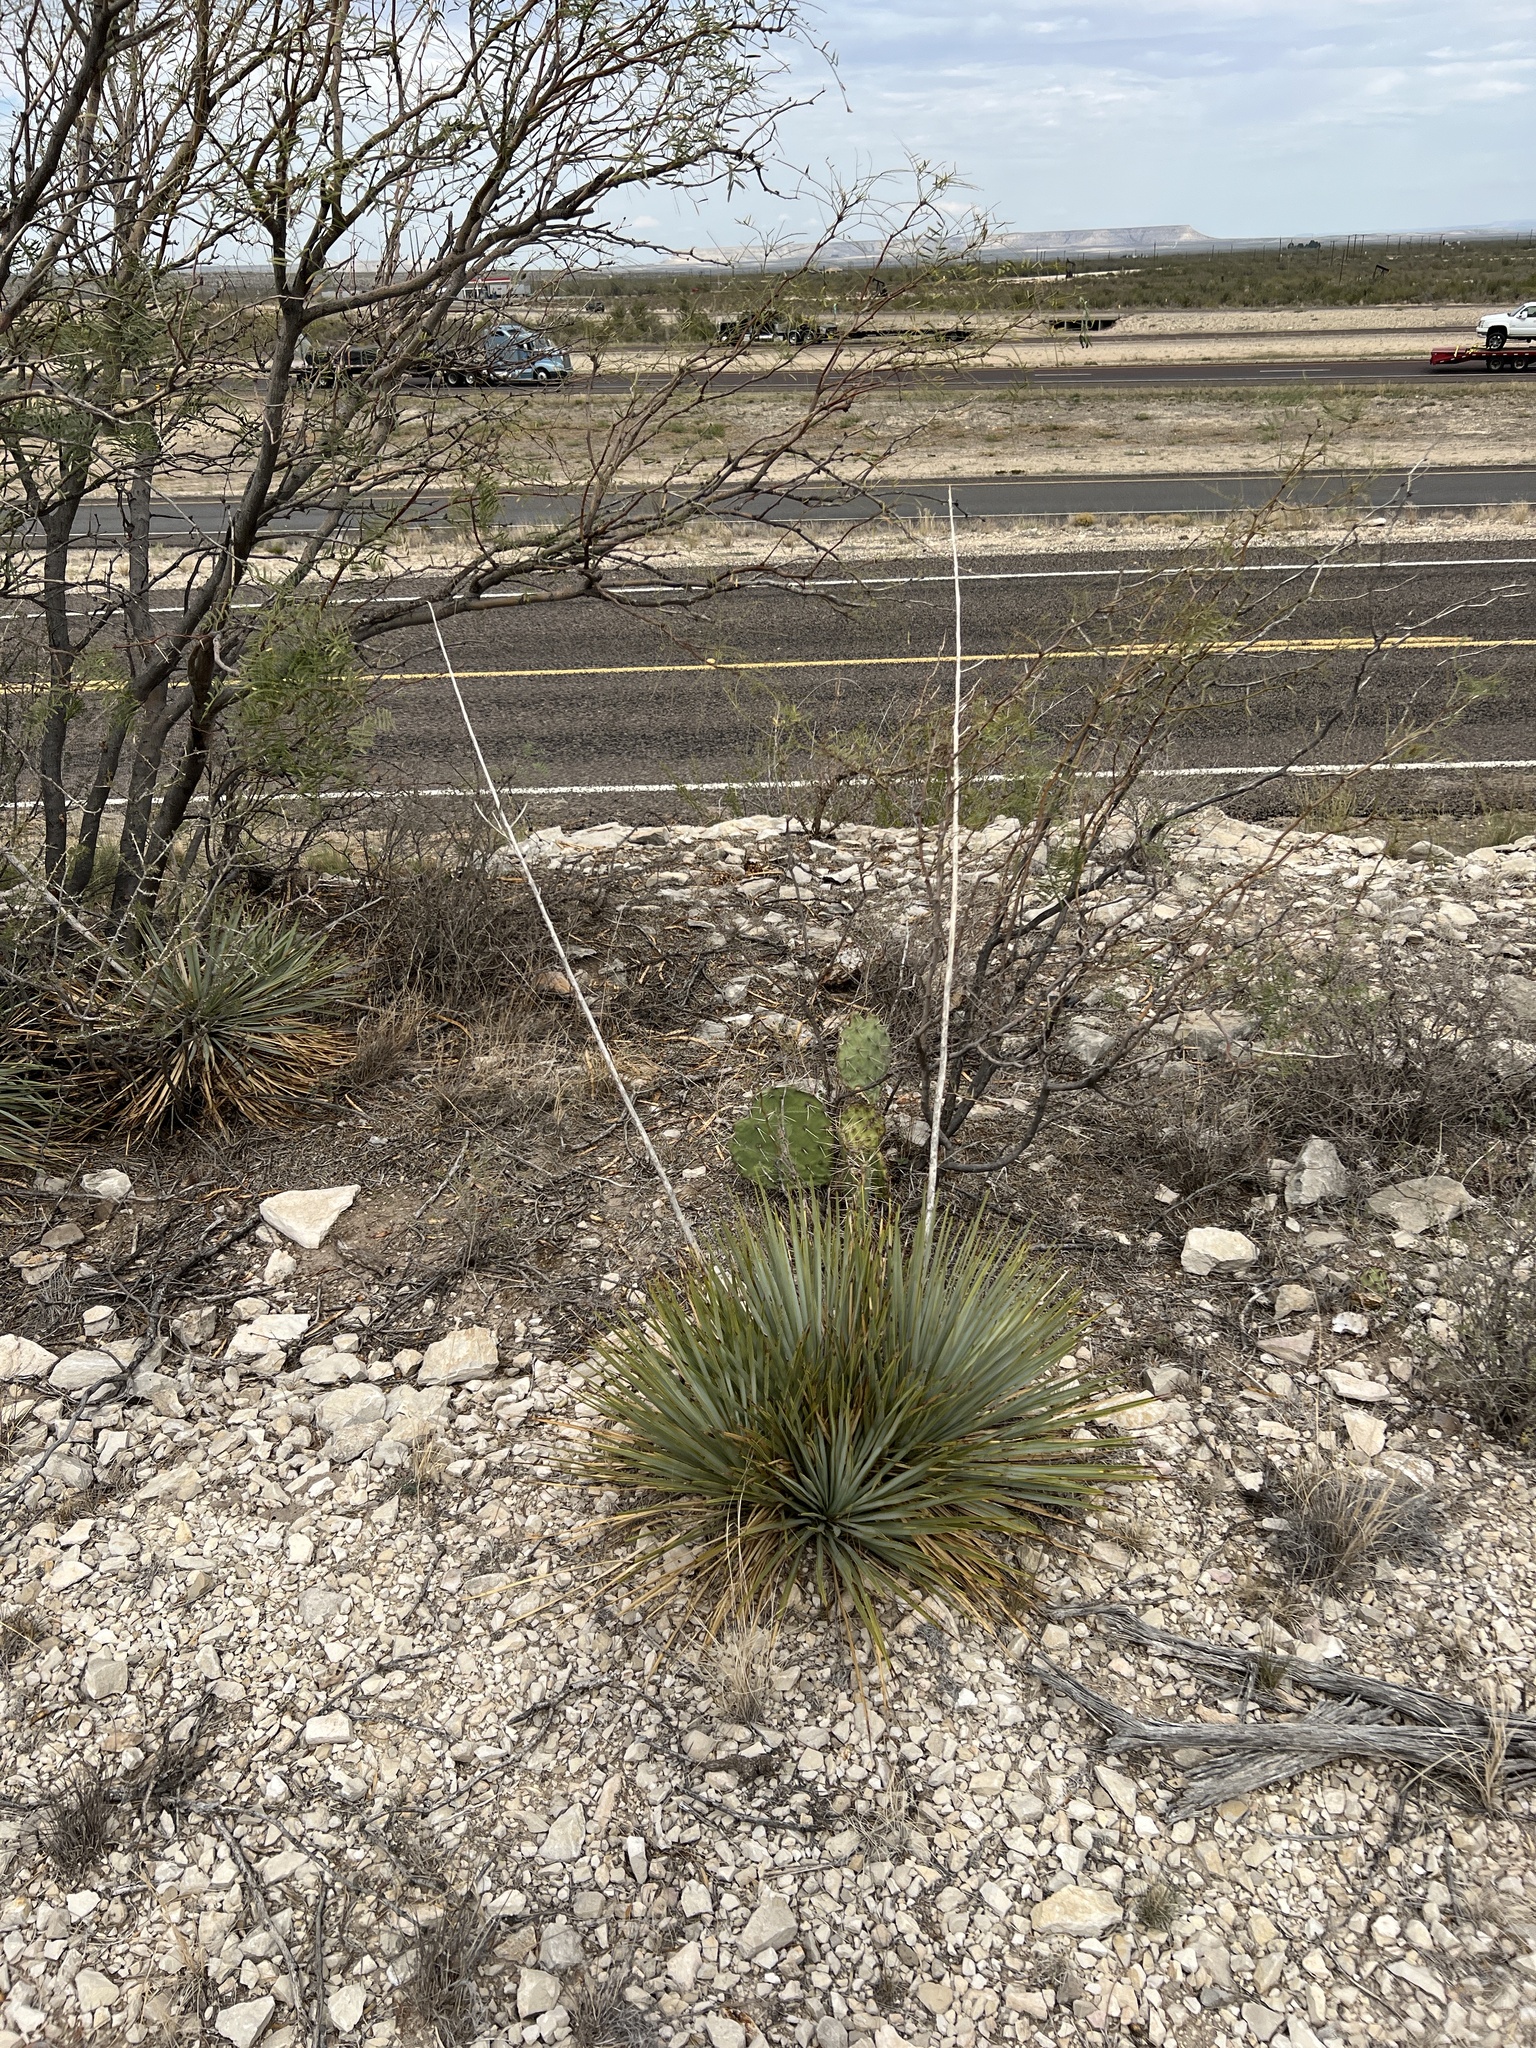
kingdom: Plantae
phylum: Tracheophyta
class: Liliopsida
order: Asparagales
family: Asparagaceae
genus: Yucca
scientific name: Yucca thompsoniana
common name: Trans-pecos yucca
